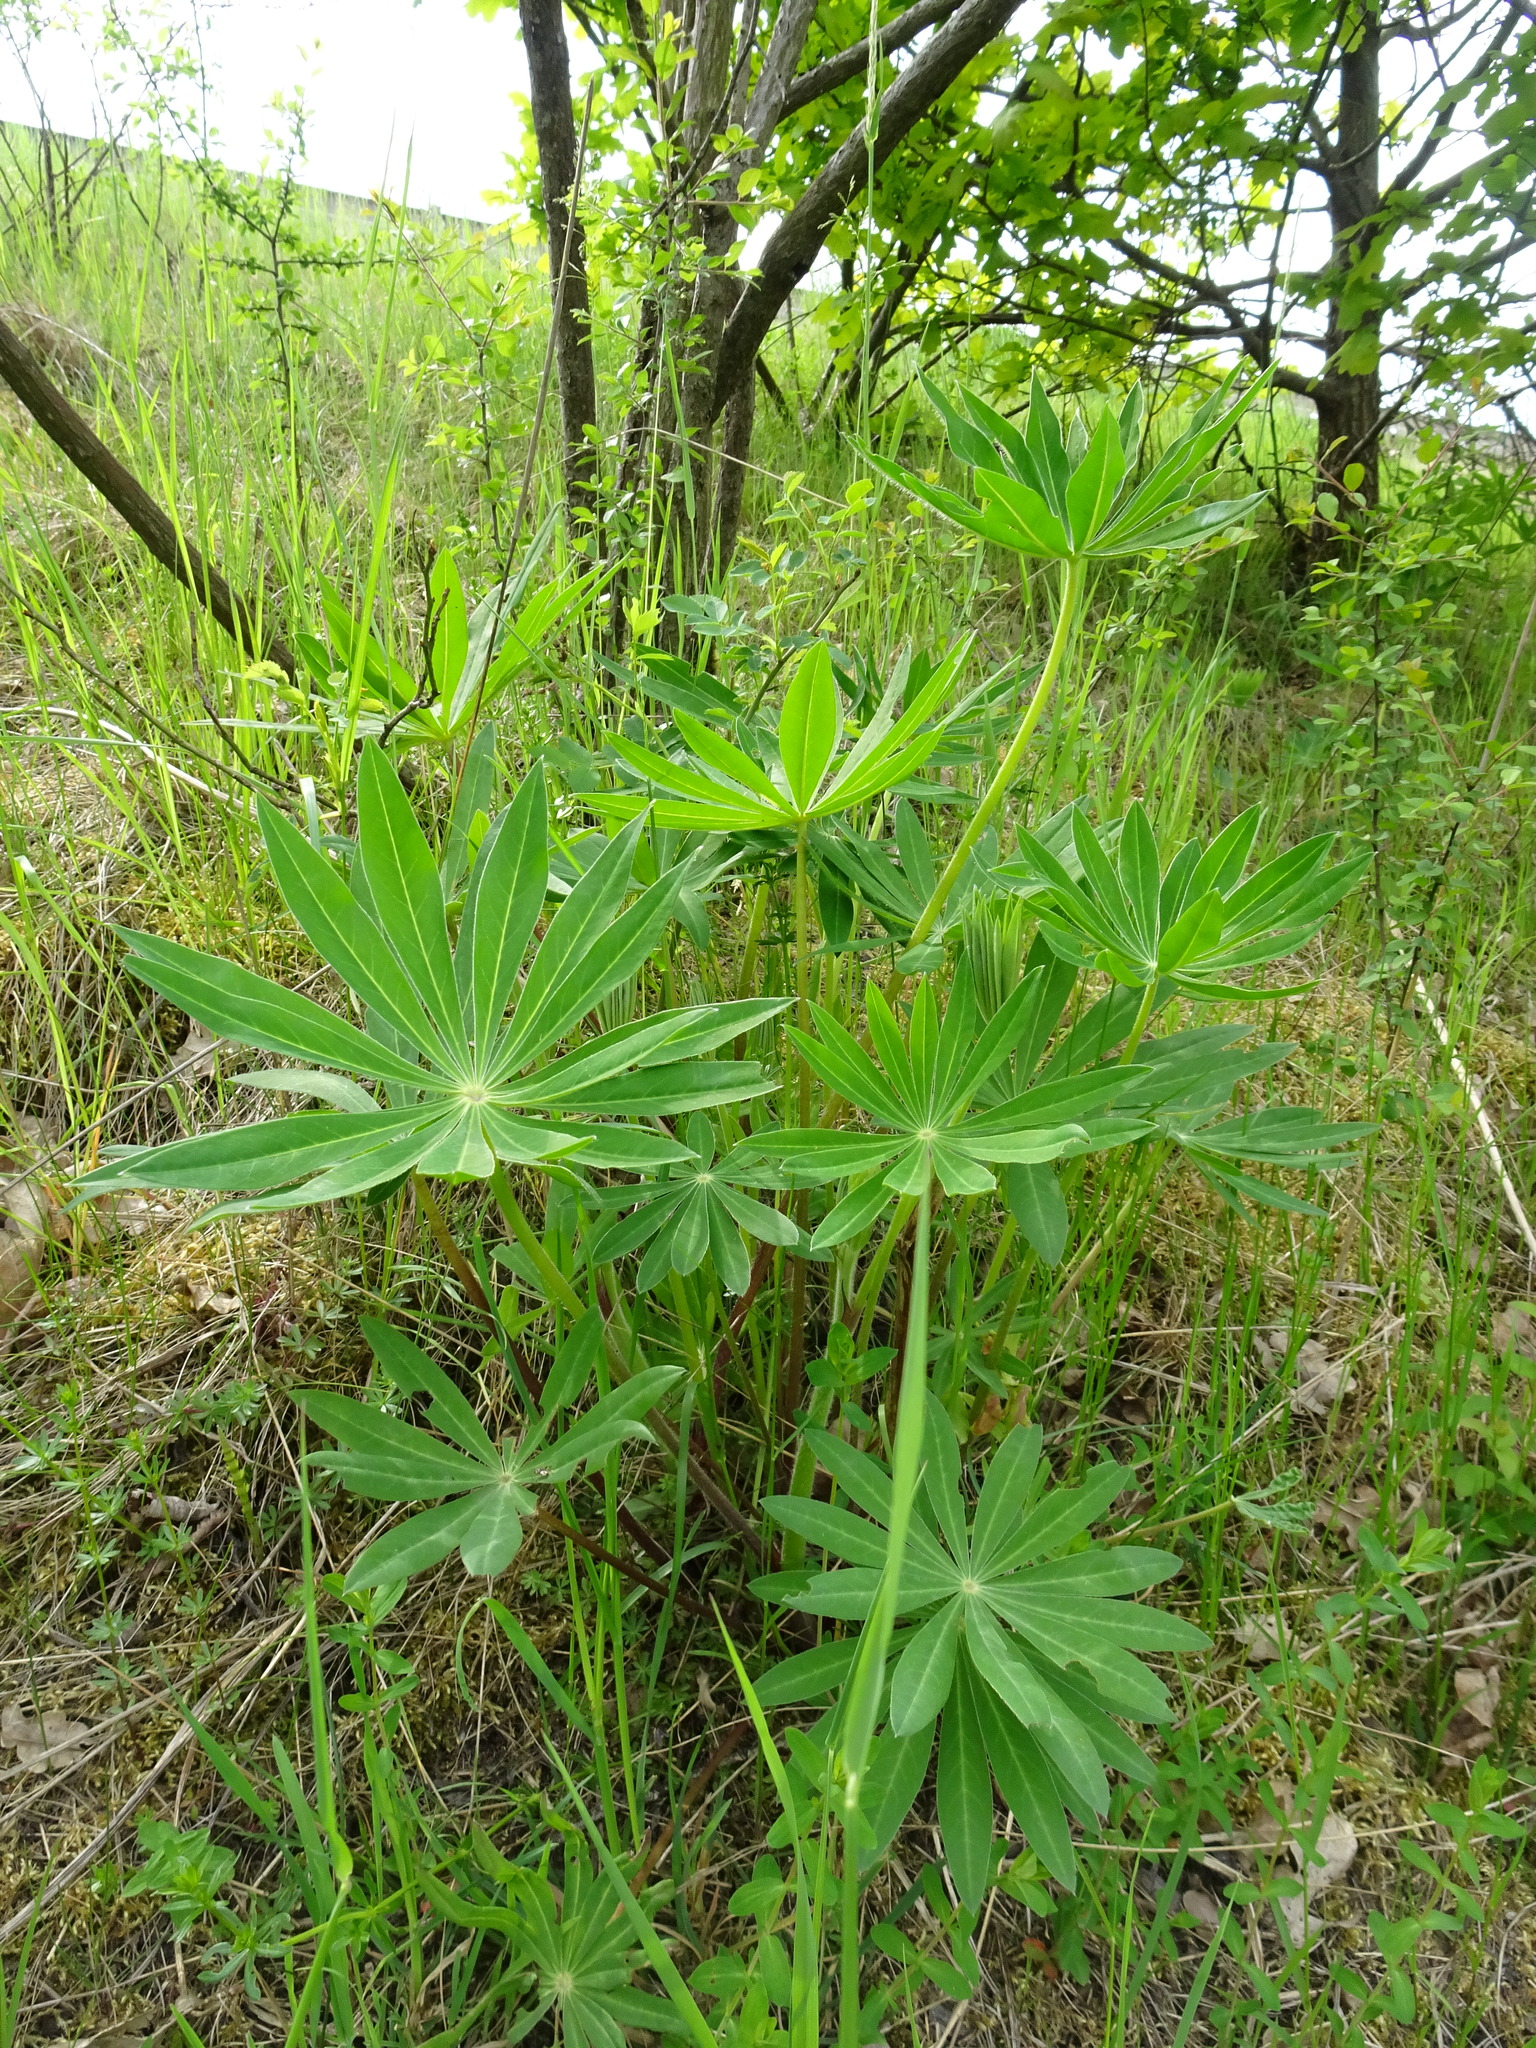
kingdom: Plantae
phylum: Tracheophyta
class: Magnoliopsida
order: Fabales
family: Fabaceae
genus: Lupinus
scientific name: Lupinus polyphyllus
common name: Garden lupin
